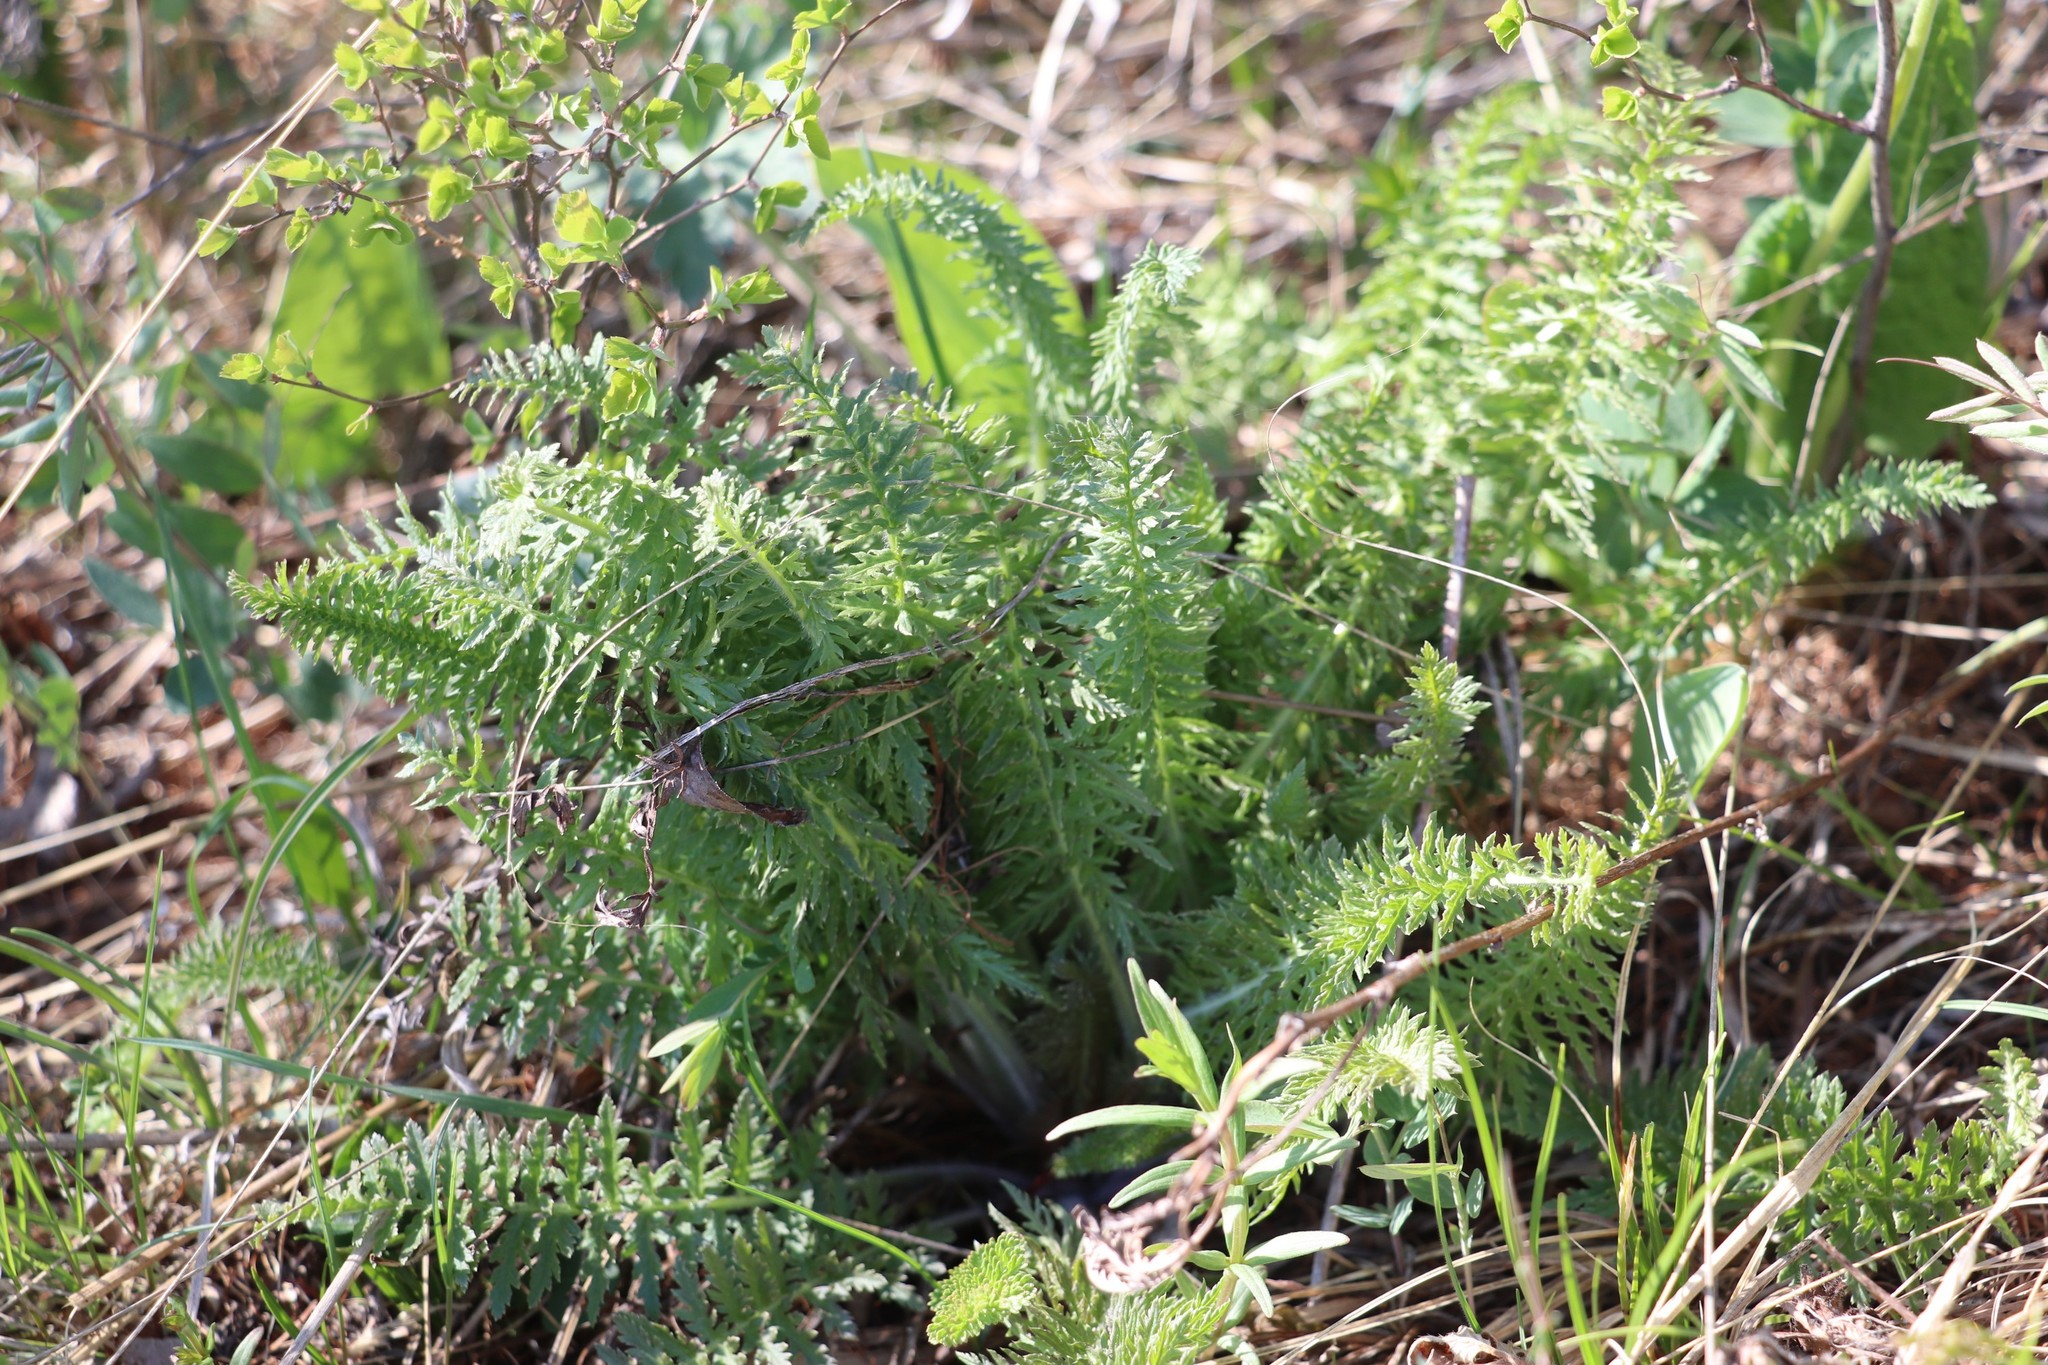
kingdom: Plantae
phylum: Tracheophyta
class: Magnoliopsida
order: Rosales
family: Rosaceae
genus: Filipendula
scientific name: Filipendula vulgaris
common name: Dropwort
